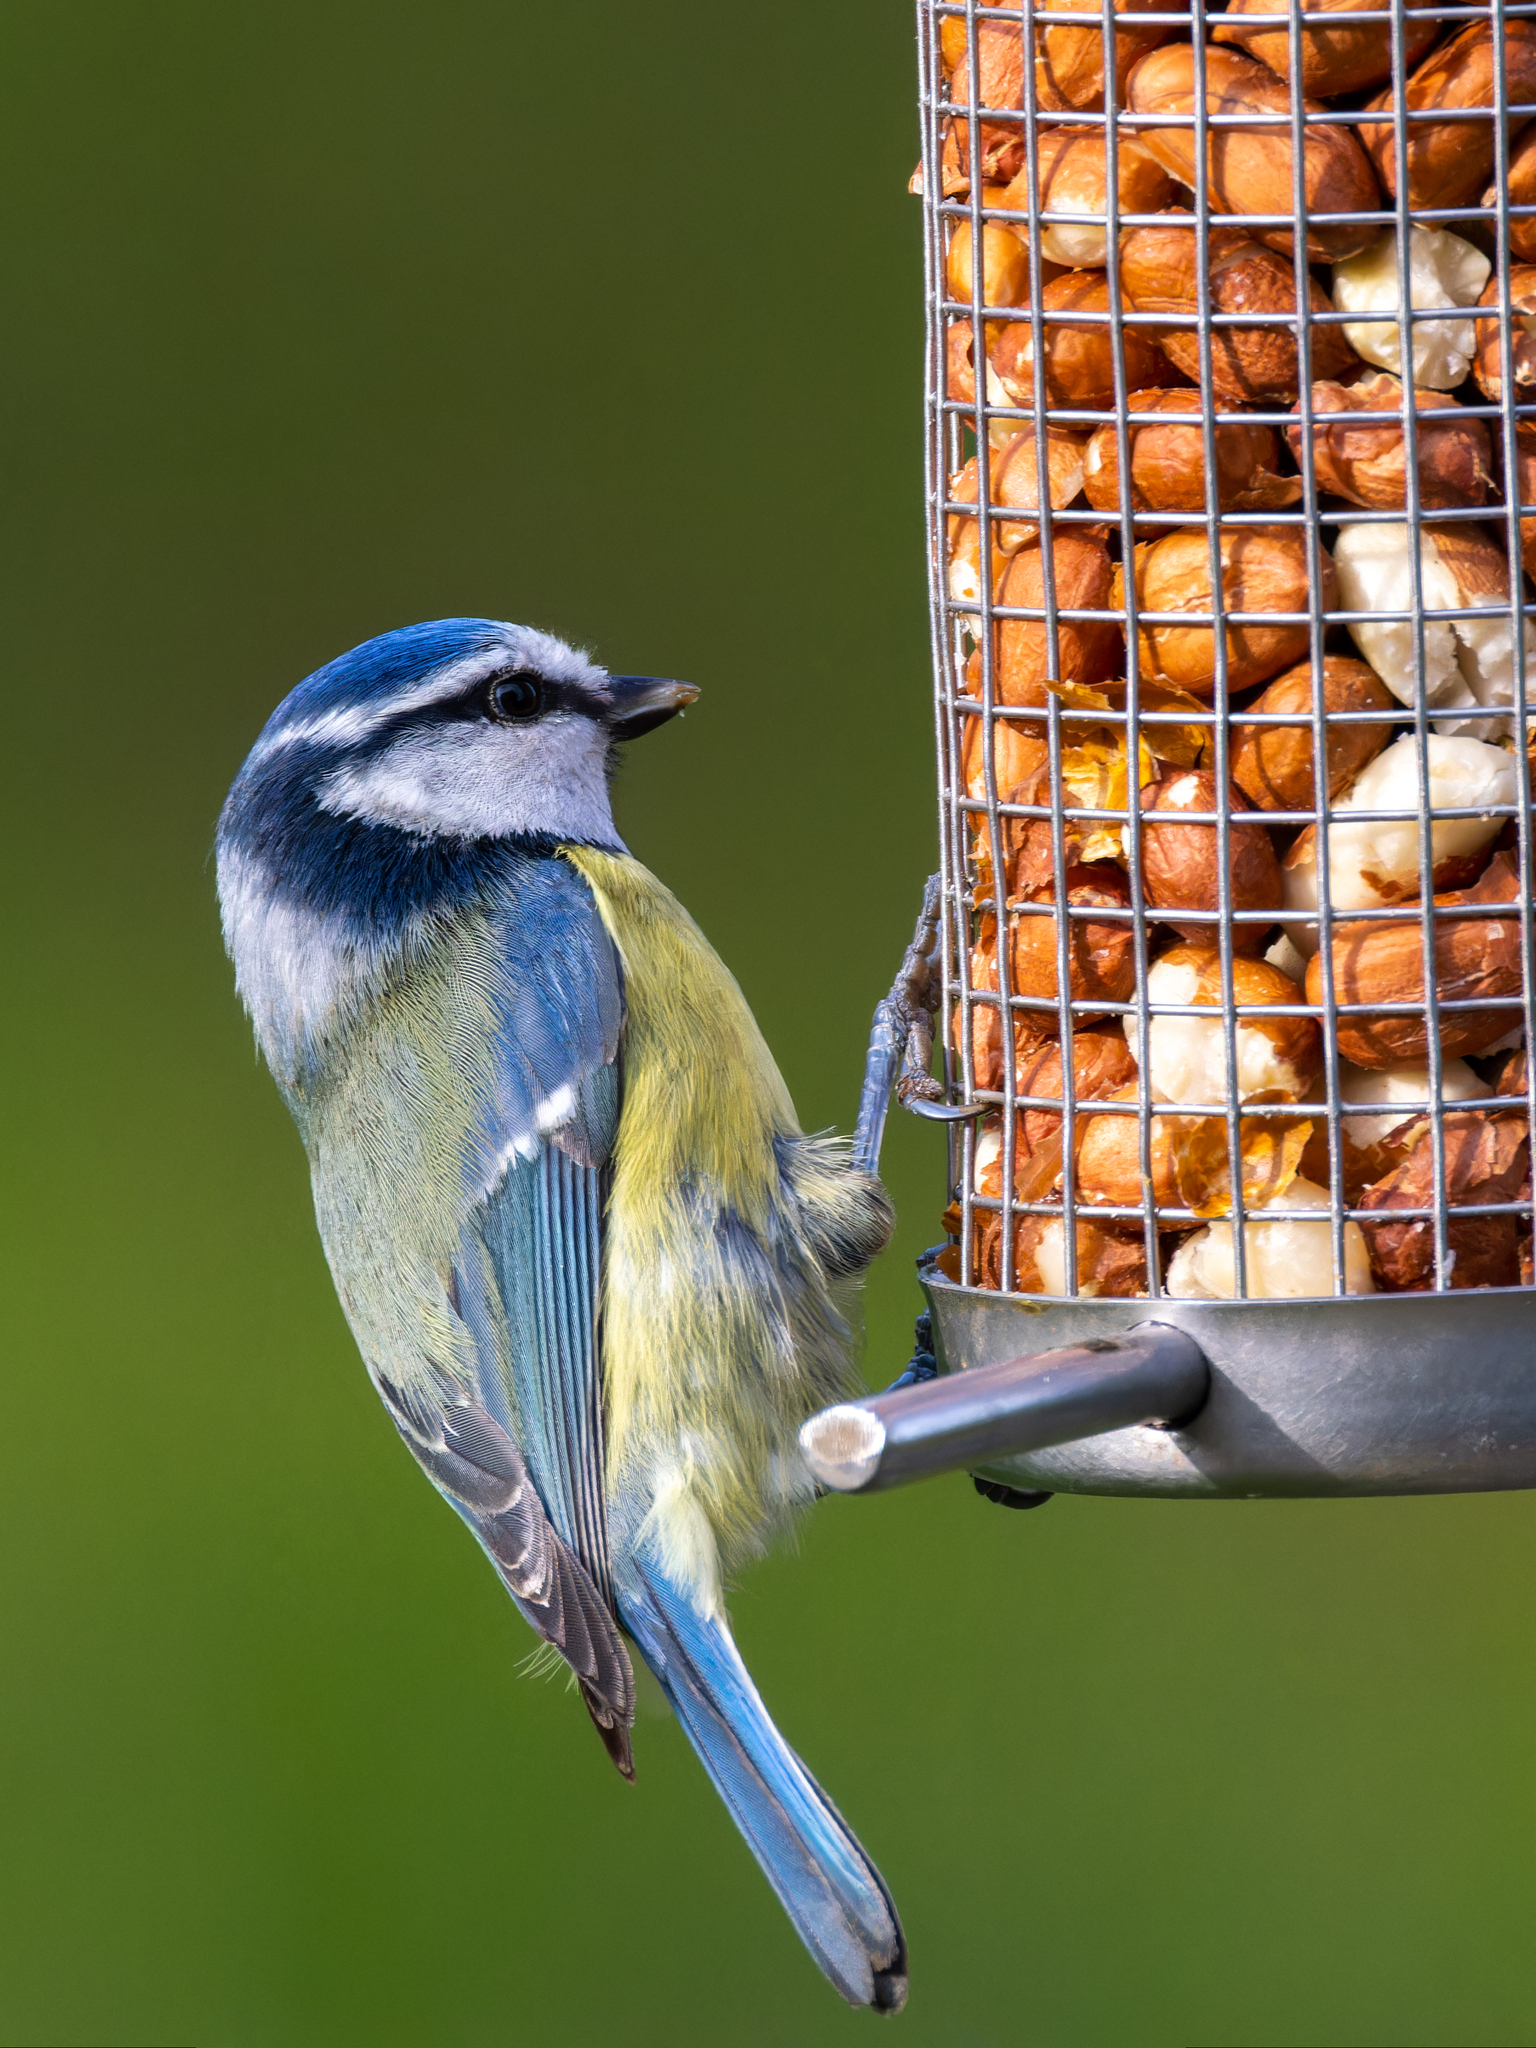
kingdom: Animalia
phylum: Chordata
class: Aves
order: Passeriformes
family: Paridae
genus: Cyanistes
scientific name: Cyanistes caeruleus
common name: Eurasian blue tit
